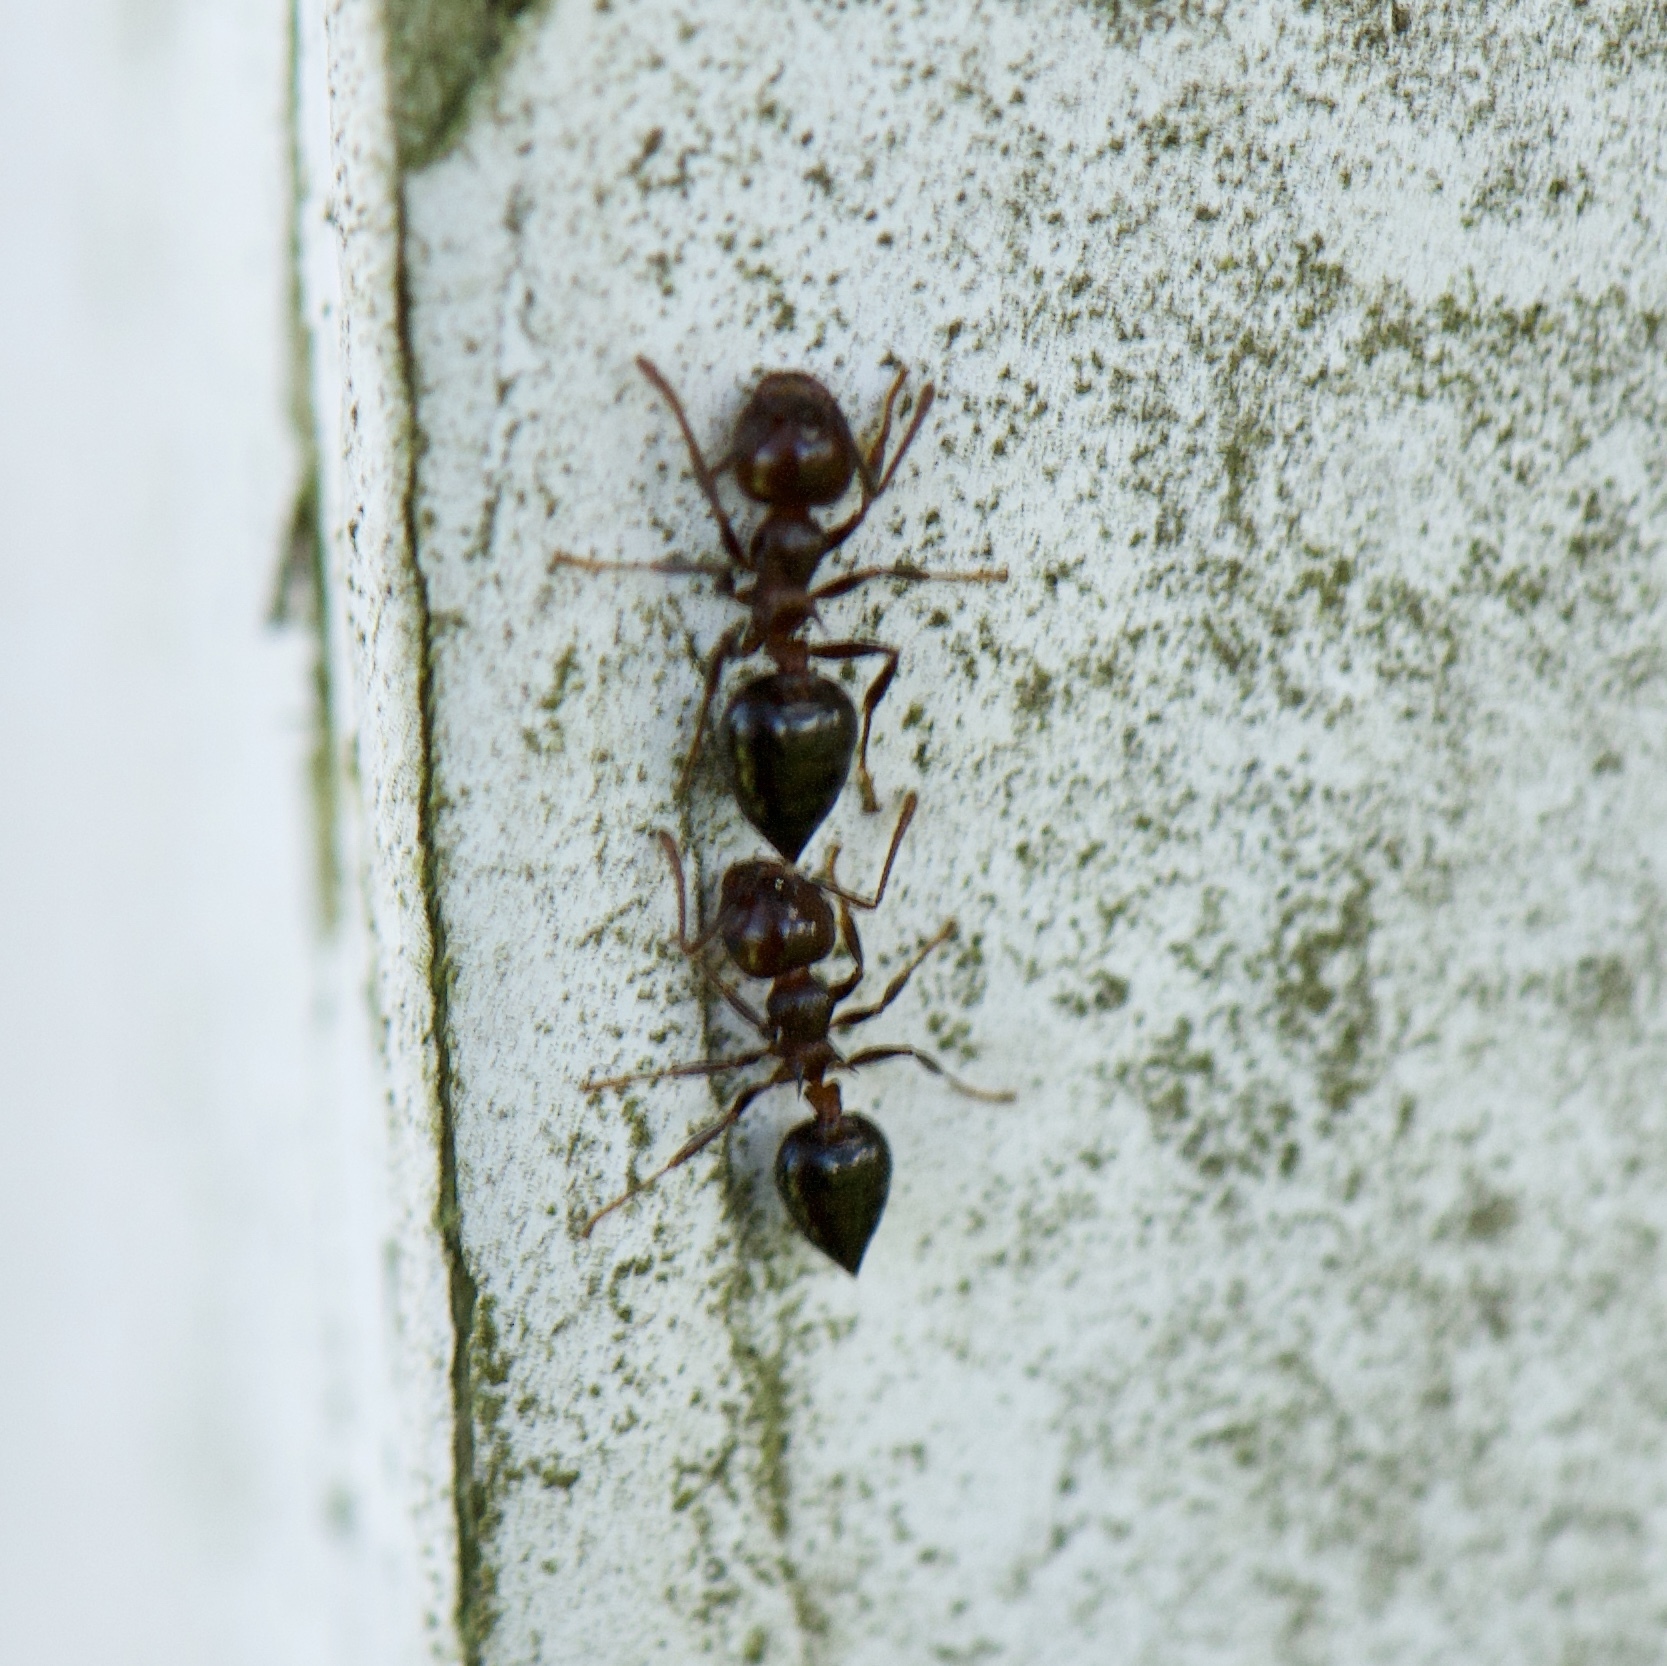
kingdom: Animalia
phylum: Arthropoda
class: Insecta
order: Hymenoptera
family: Formicidae
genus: Crematogaster
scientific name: Crematogaster laeviuscula
